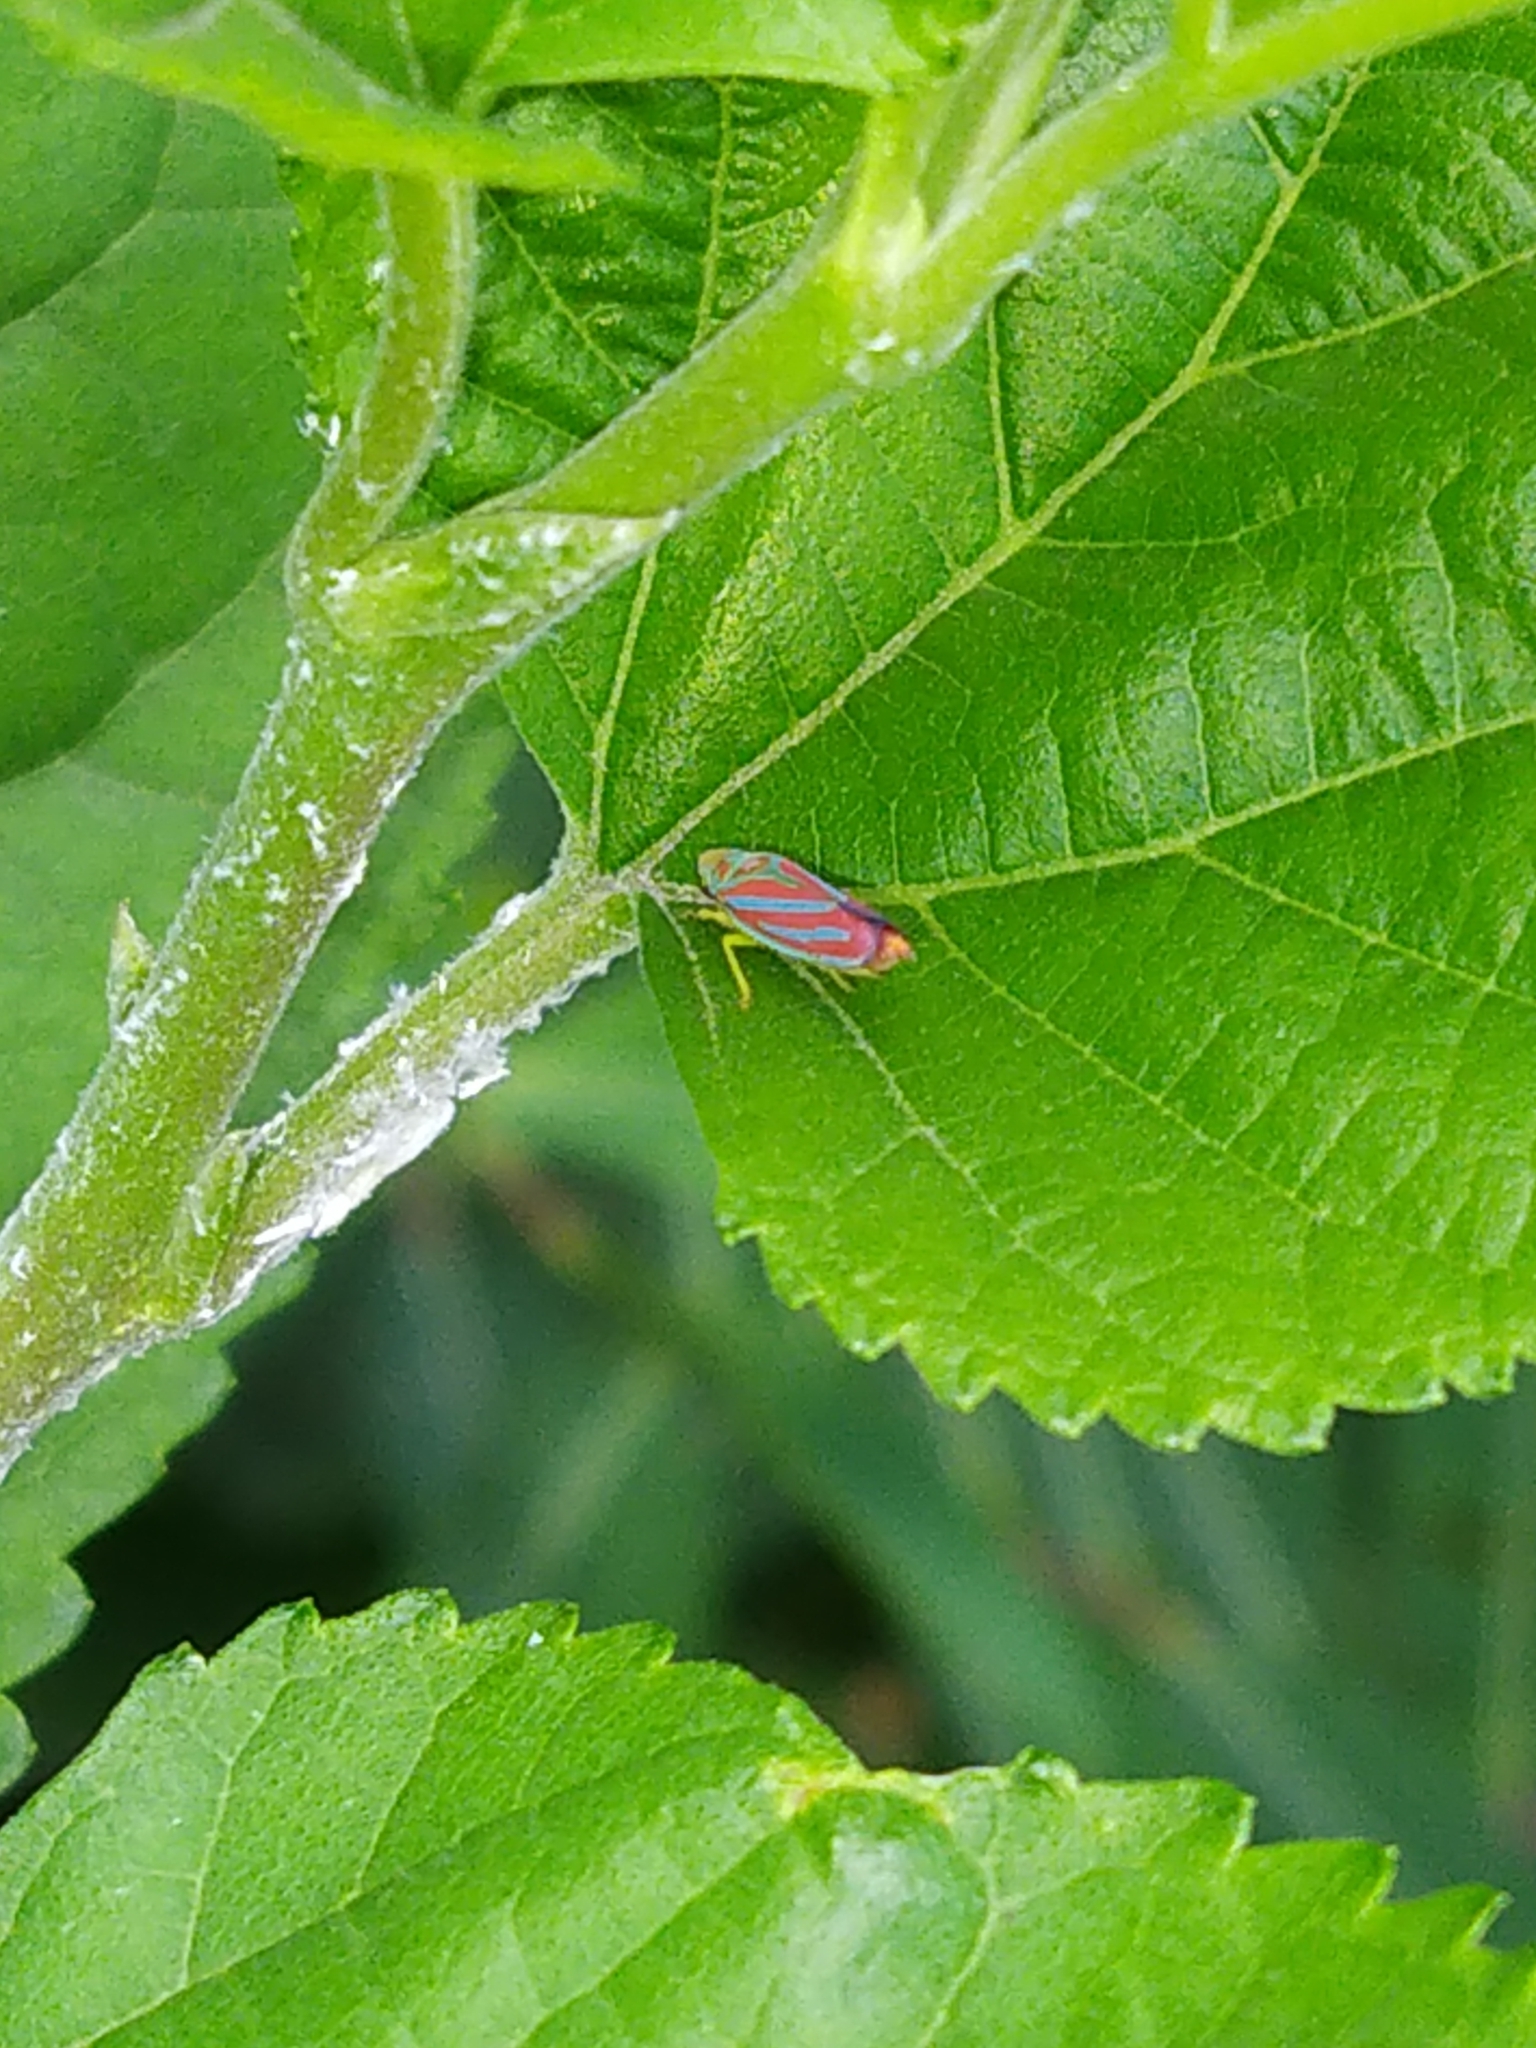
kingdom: Animalia
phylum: Arthropoda
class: Insecta
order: Hemiptera
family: Cicadellidae
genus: Graphocephala
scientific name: Graphocephala coccinea
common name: Candy-striped leafhopper
